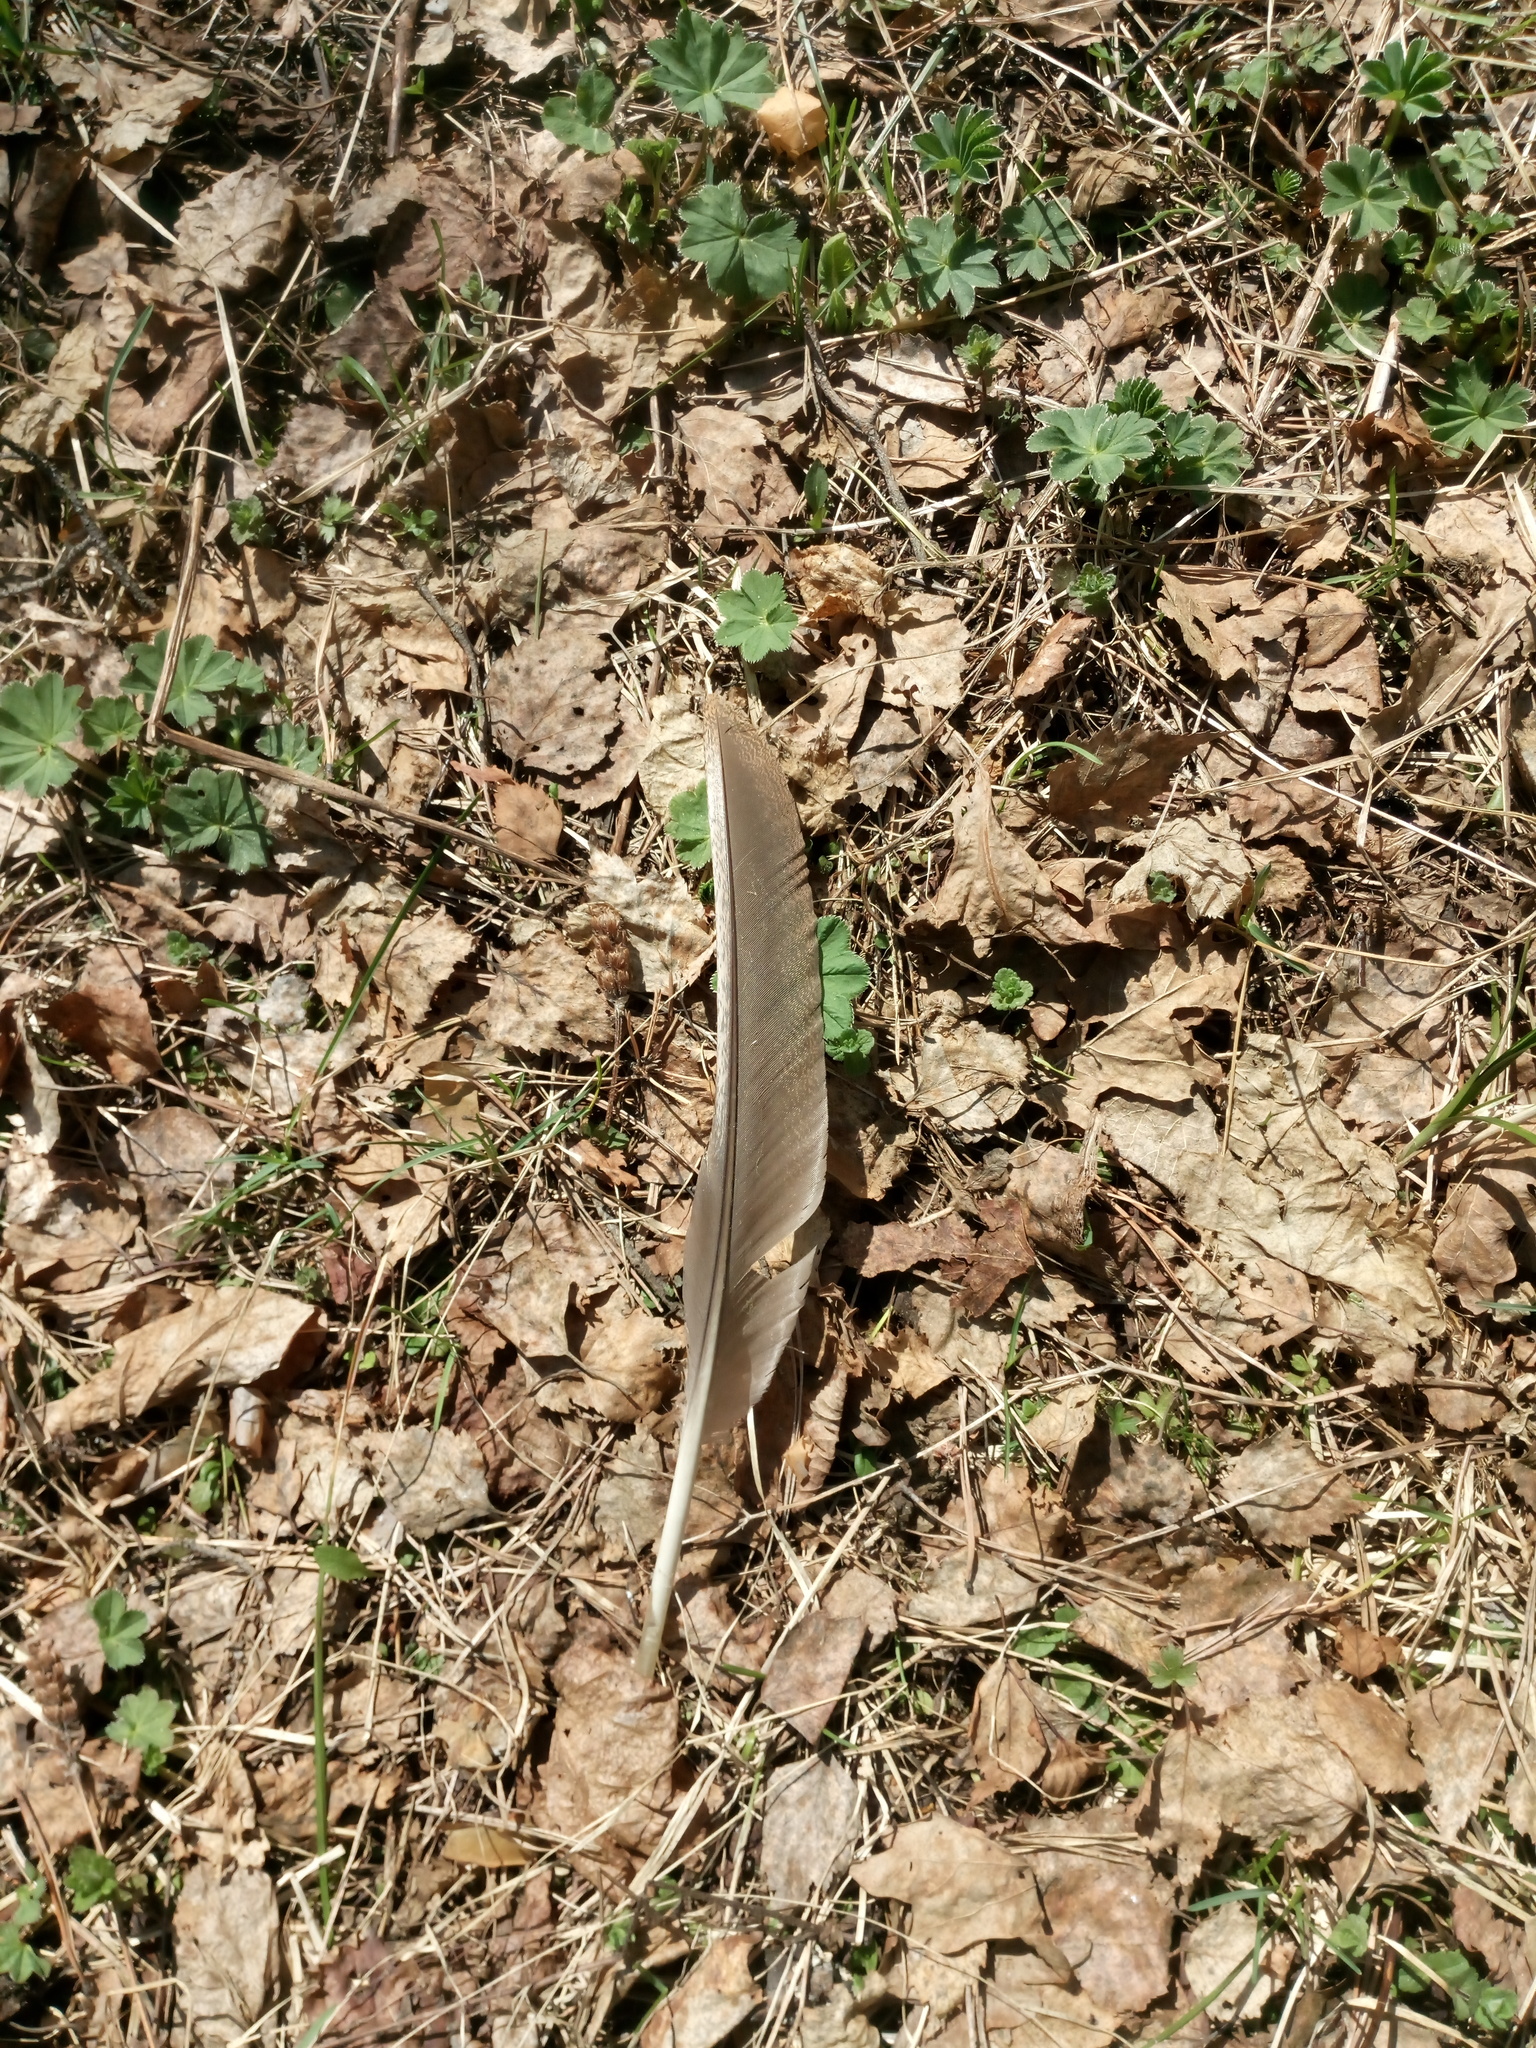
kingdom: Animalia
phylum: Chordata
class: Aves
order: Galliformes
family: Phasianidae
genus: Tetrao
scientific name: Tetrao urogallus
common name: Western capercaillie
